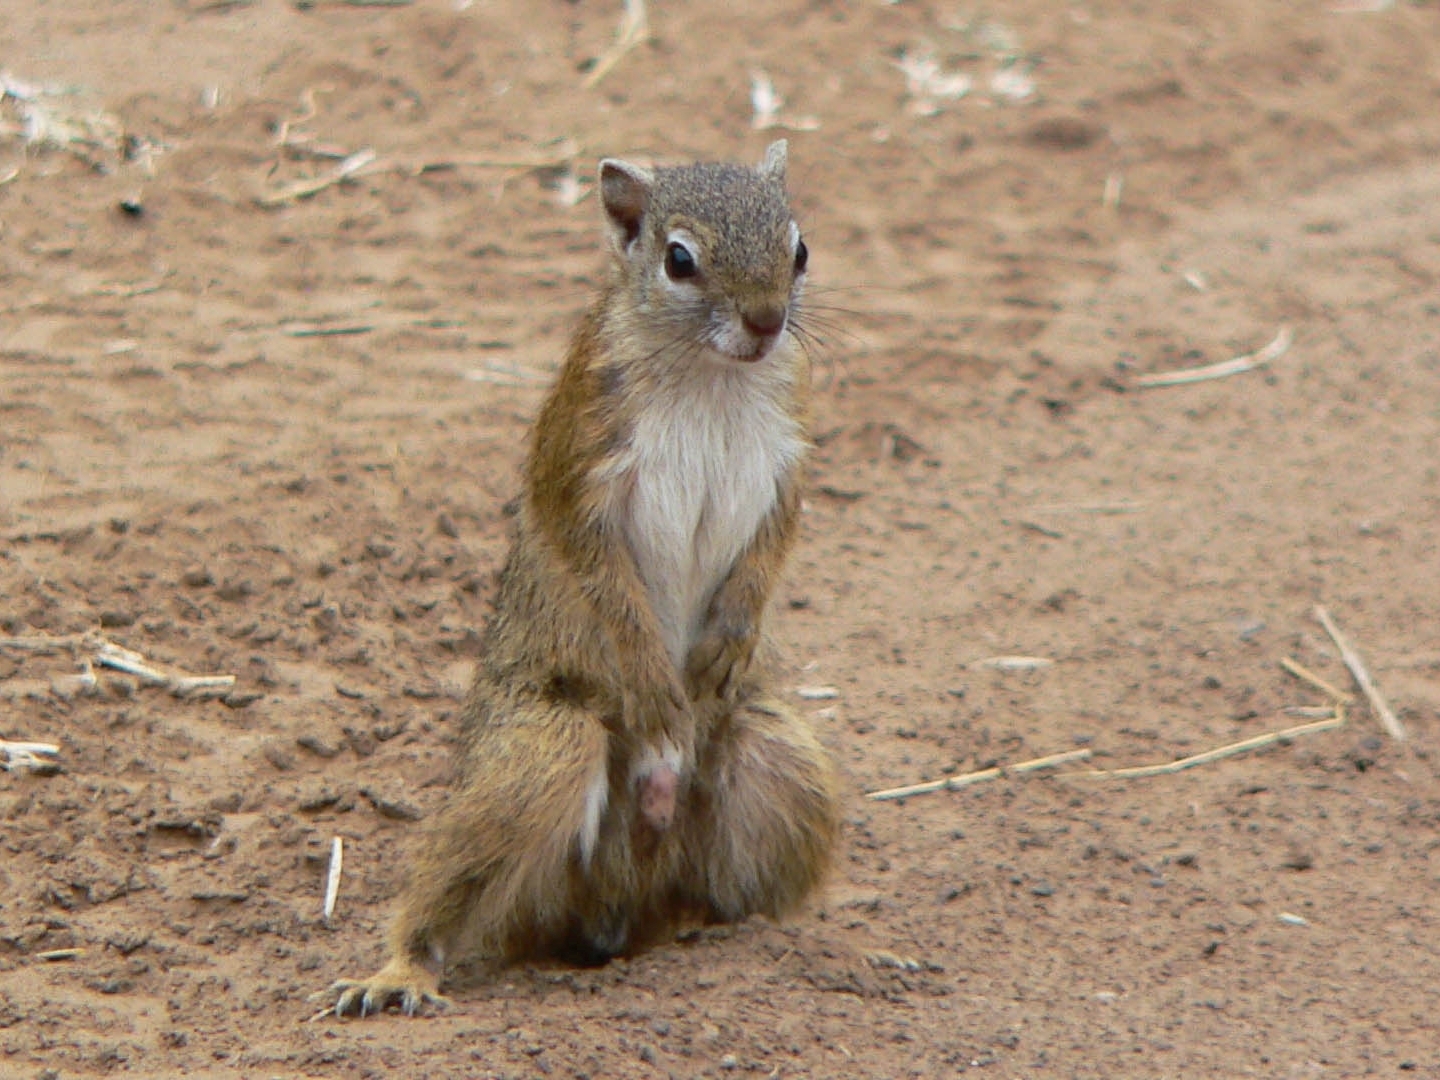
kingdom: Animalia
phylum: Chordata
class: Mammalia
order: Rodentia
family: Sciuridae
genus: Paraxerus
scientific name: Paraxerus cepapi
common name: Smith's bush squirrel
